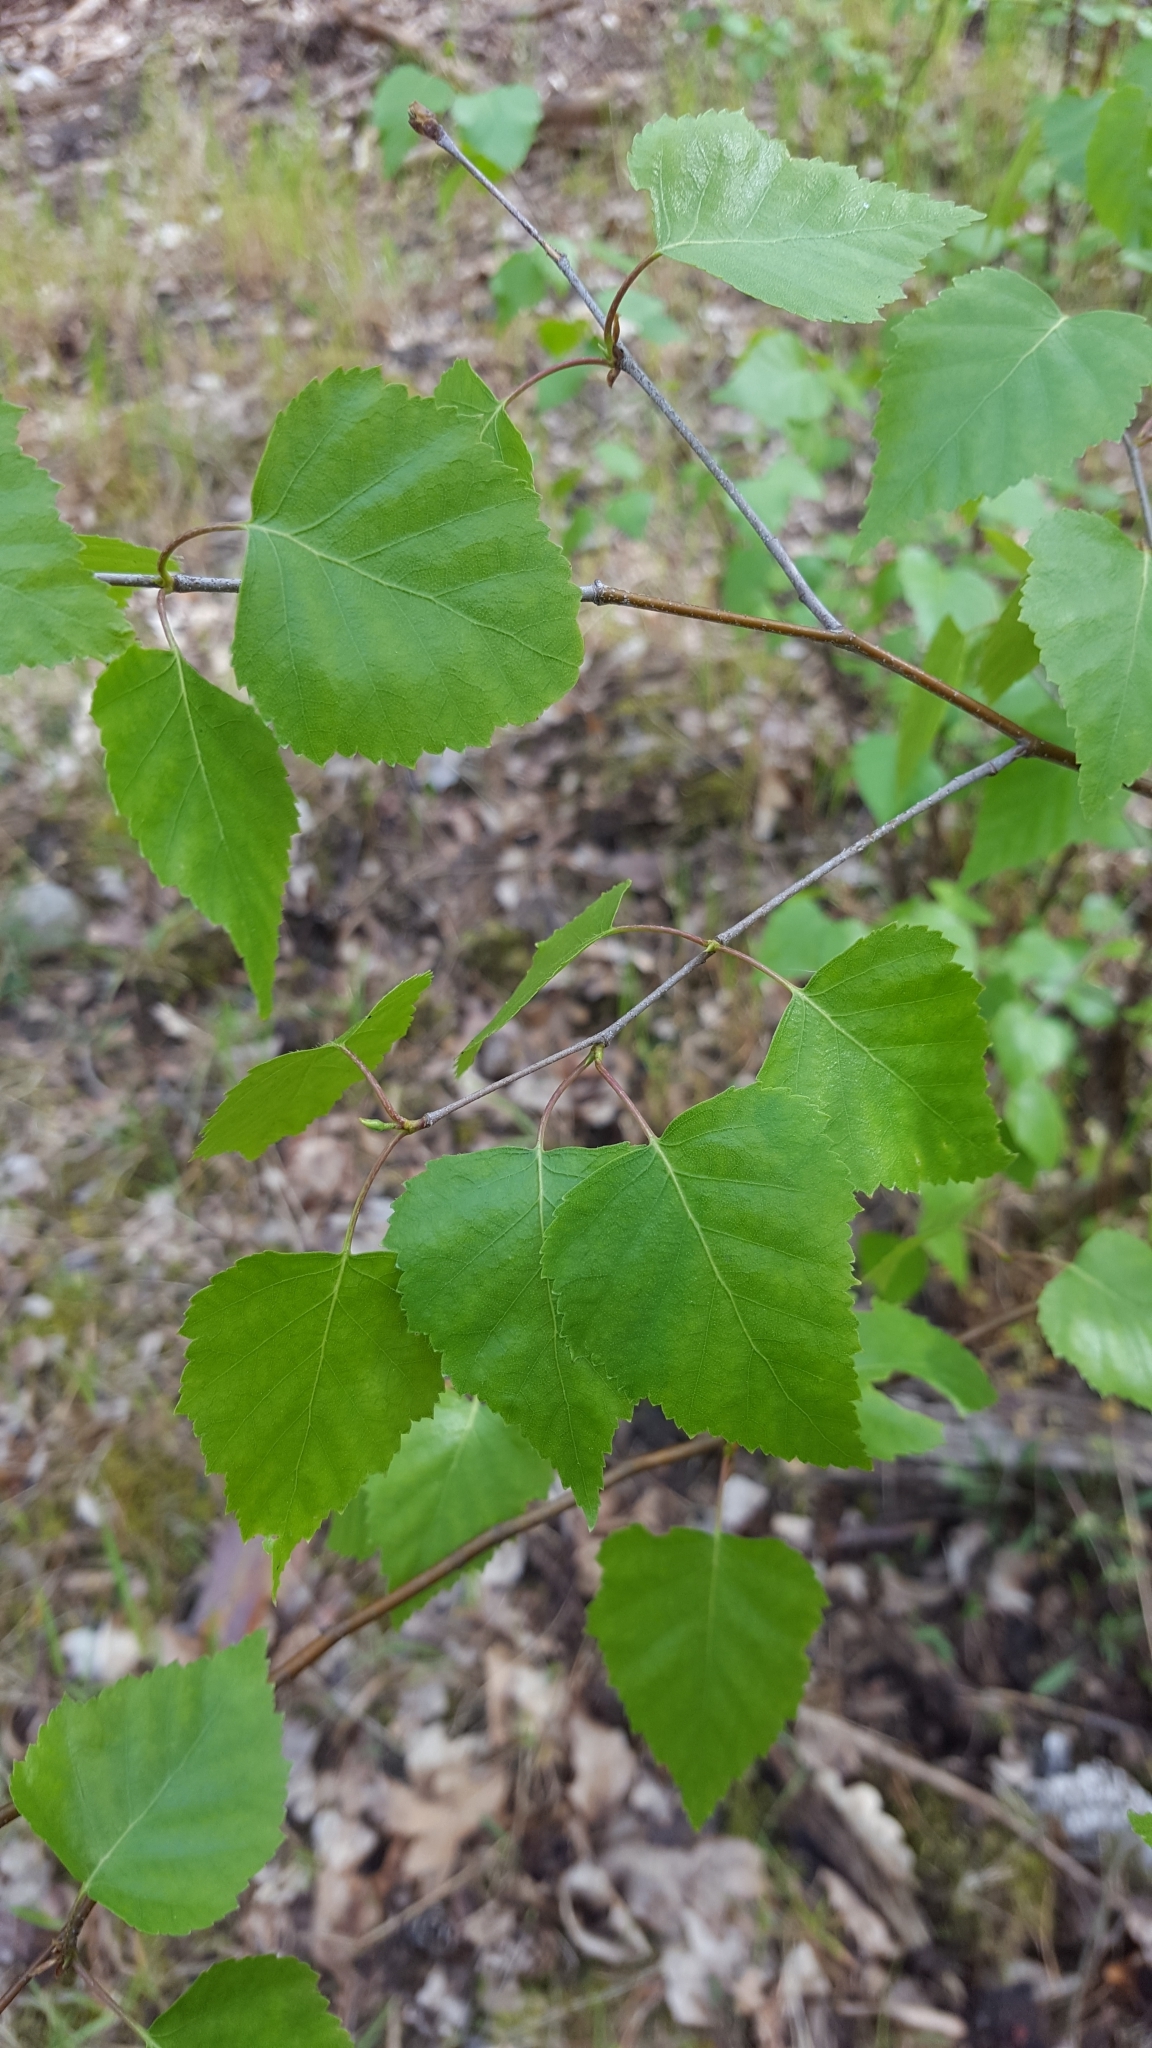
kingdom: Plantae
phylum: Tracheophyta
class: Magnoliopsida
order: Fagales
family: Betulaceae
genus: Betula
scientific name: Betula pendula
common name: Silver birch
